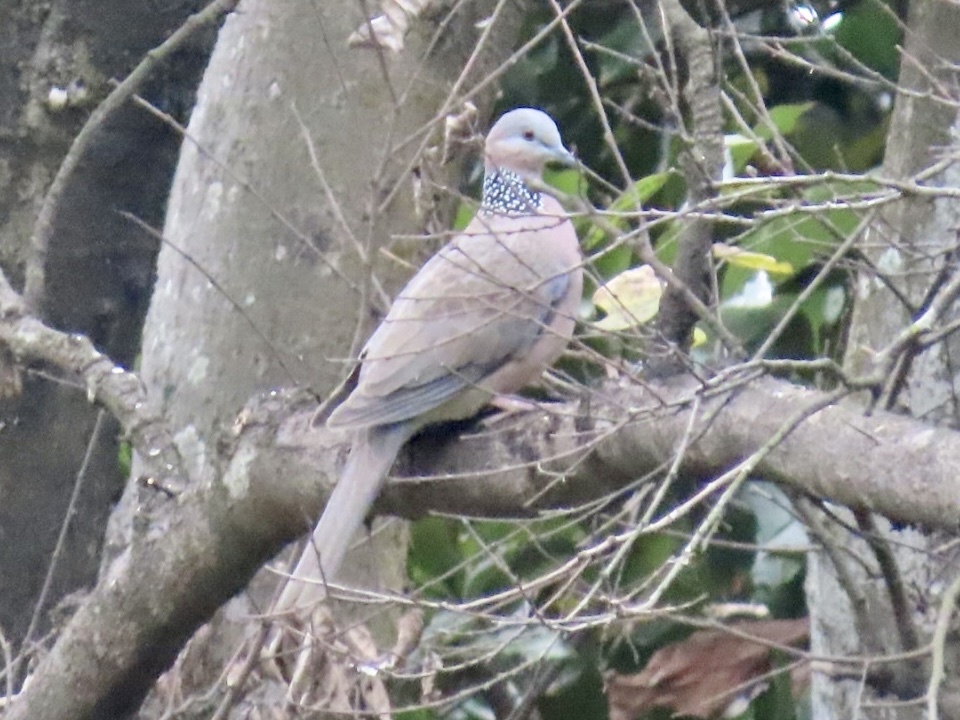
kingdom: Animalia
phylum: Chordata
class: Aves
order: Columbiformes
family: Columbidae
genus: Spilopelia
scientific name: Spilopelia chinensis
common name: Spotted dove
